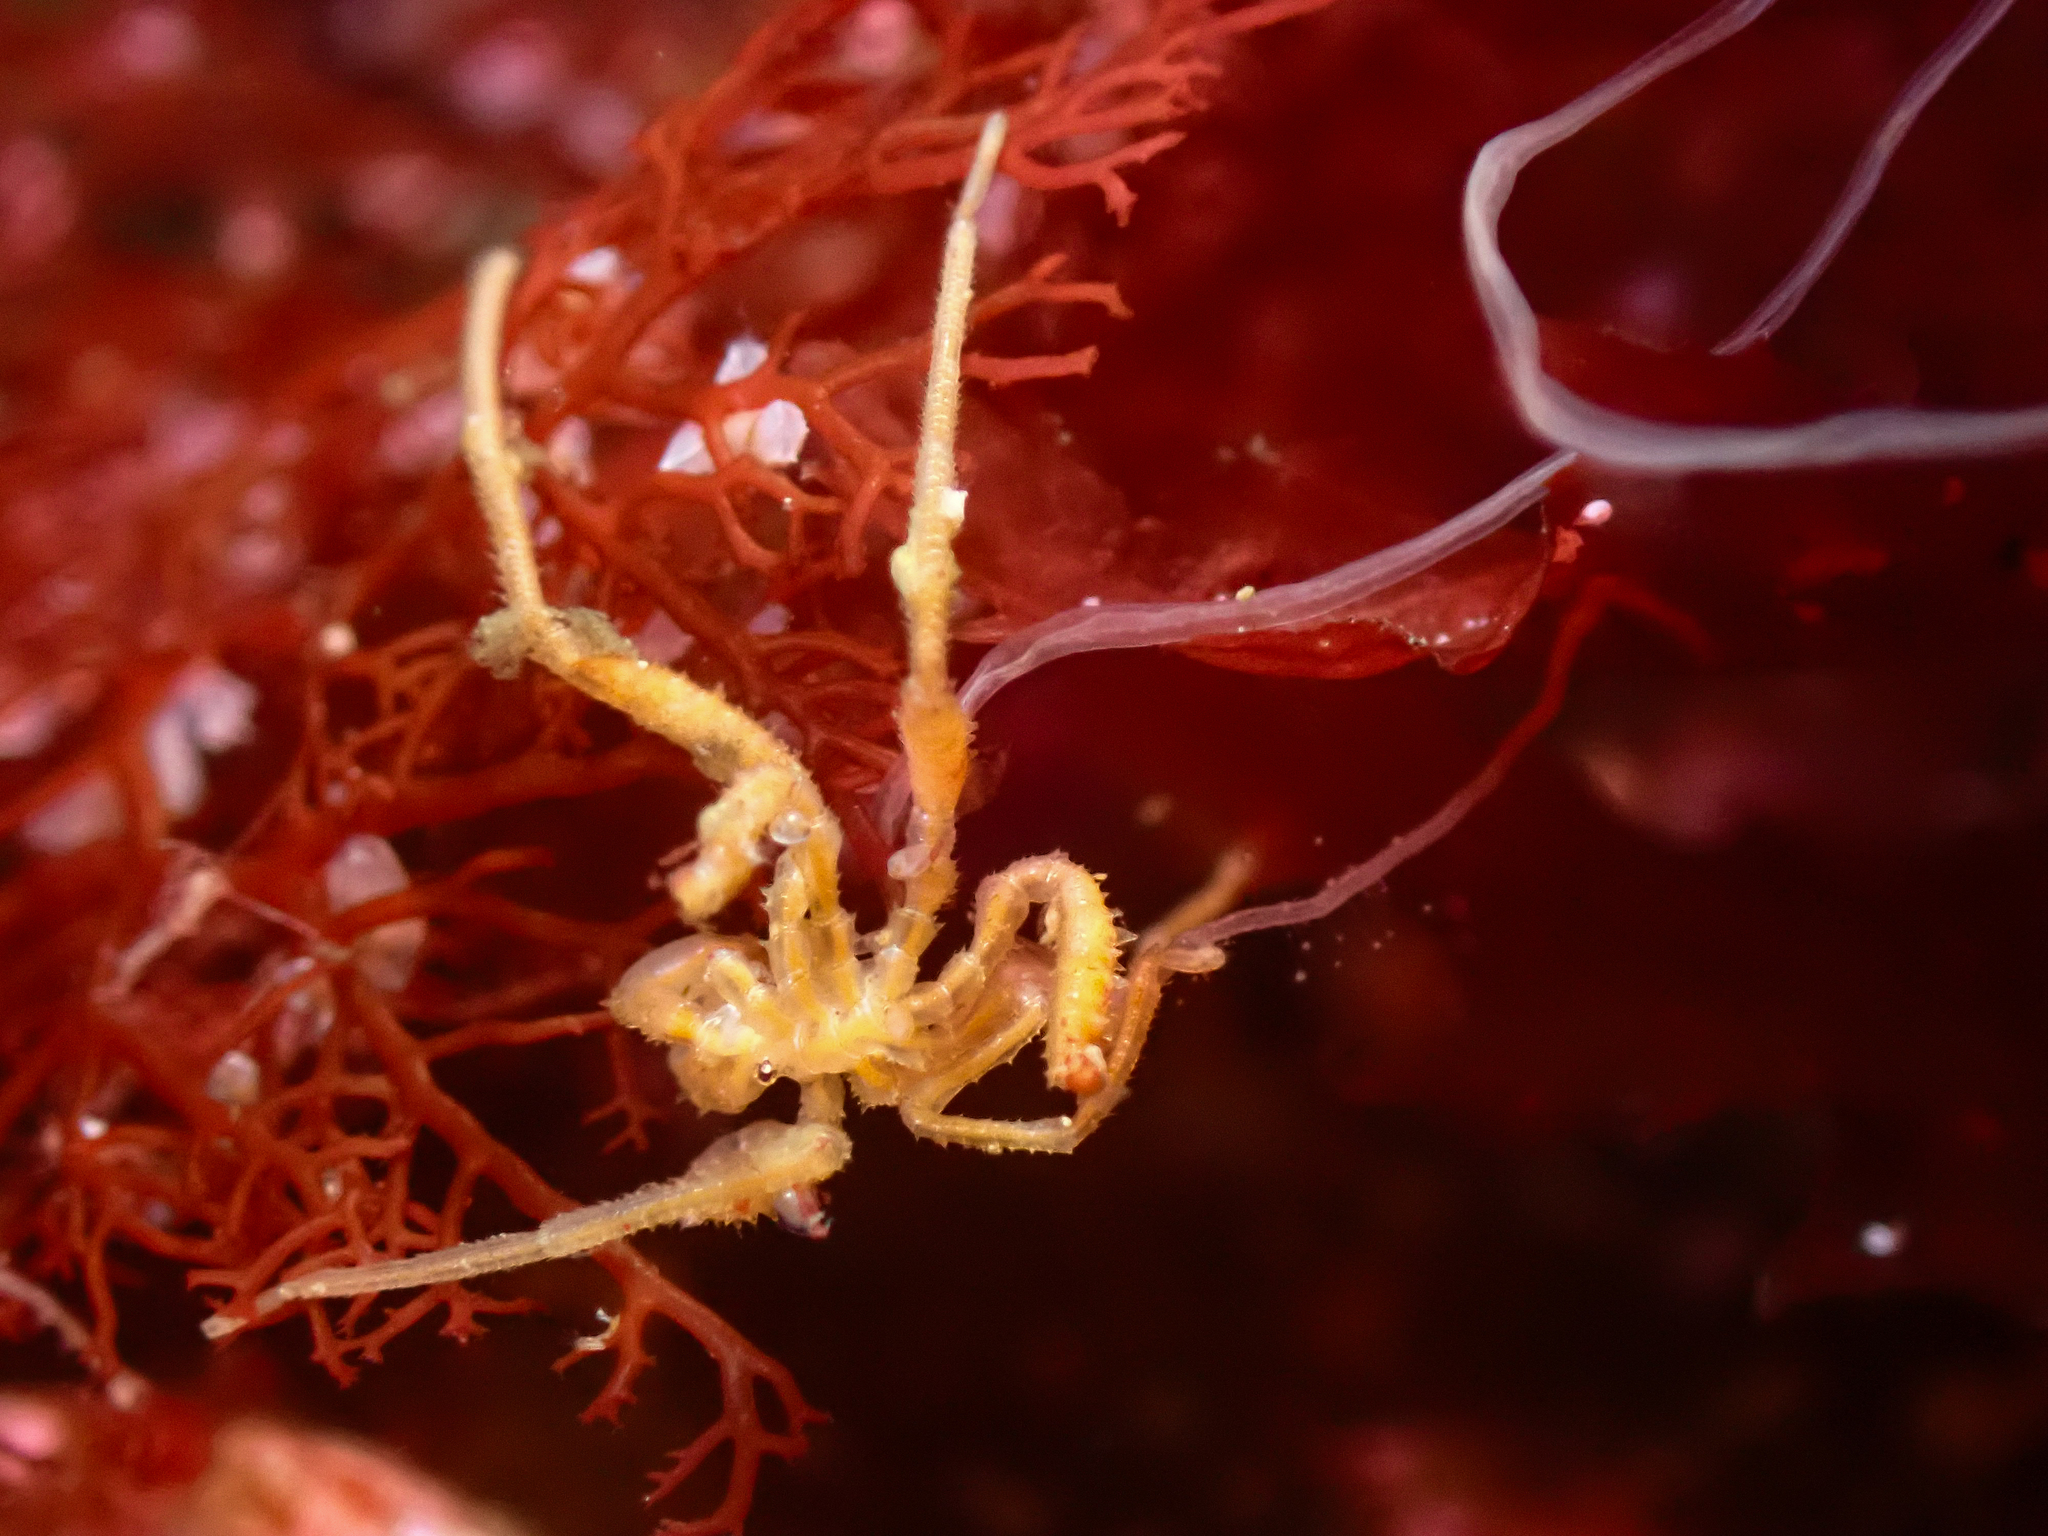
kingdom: Animalia
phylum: Arthropoda
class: Pycnogonida
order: Pantopoda
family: Callipallenidae
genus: Pseudopallene
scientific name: Pseudopallene spinipes
